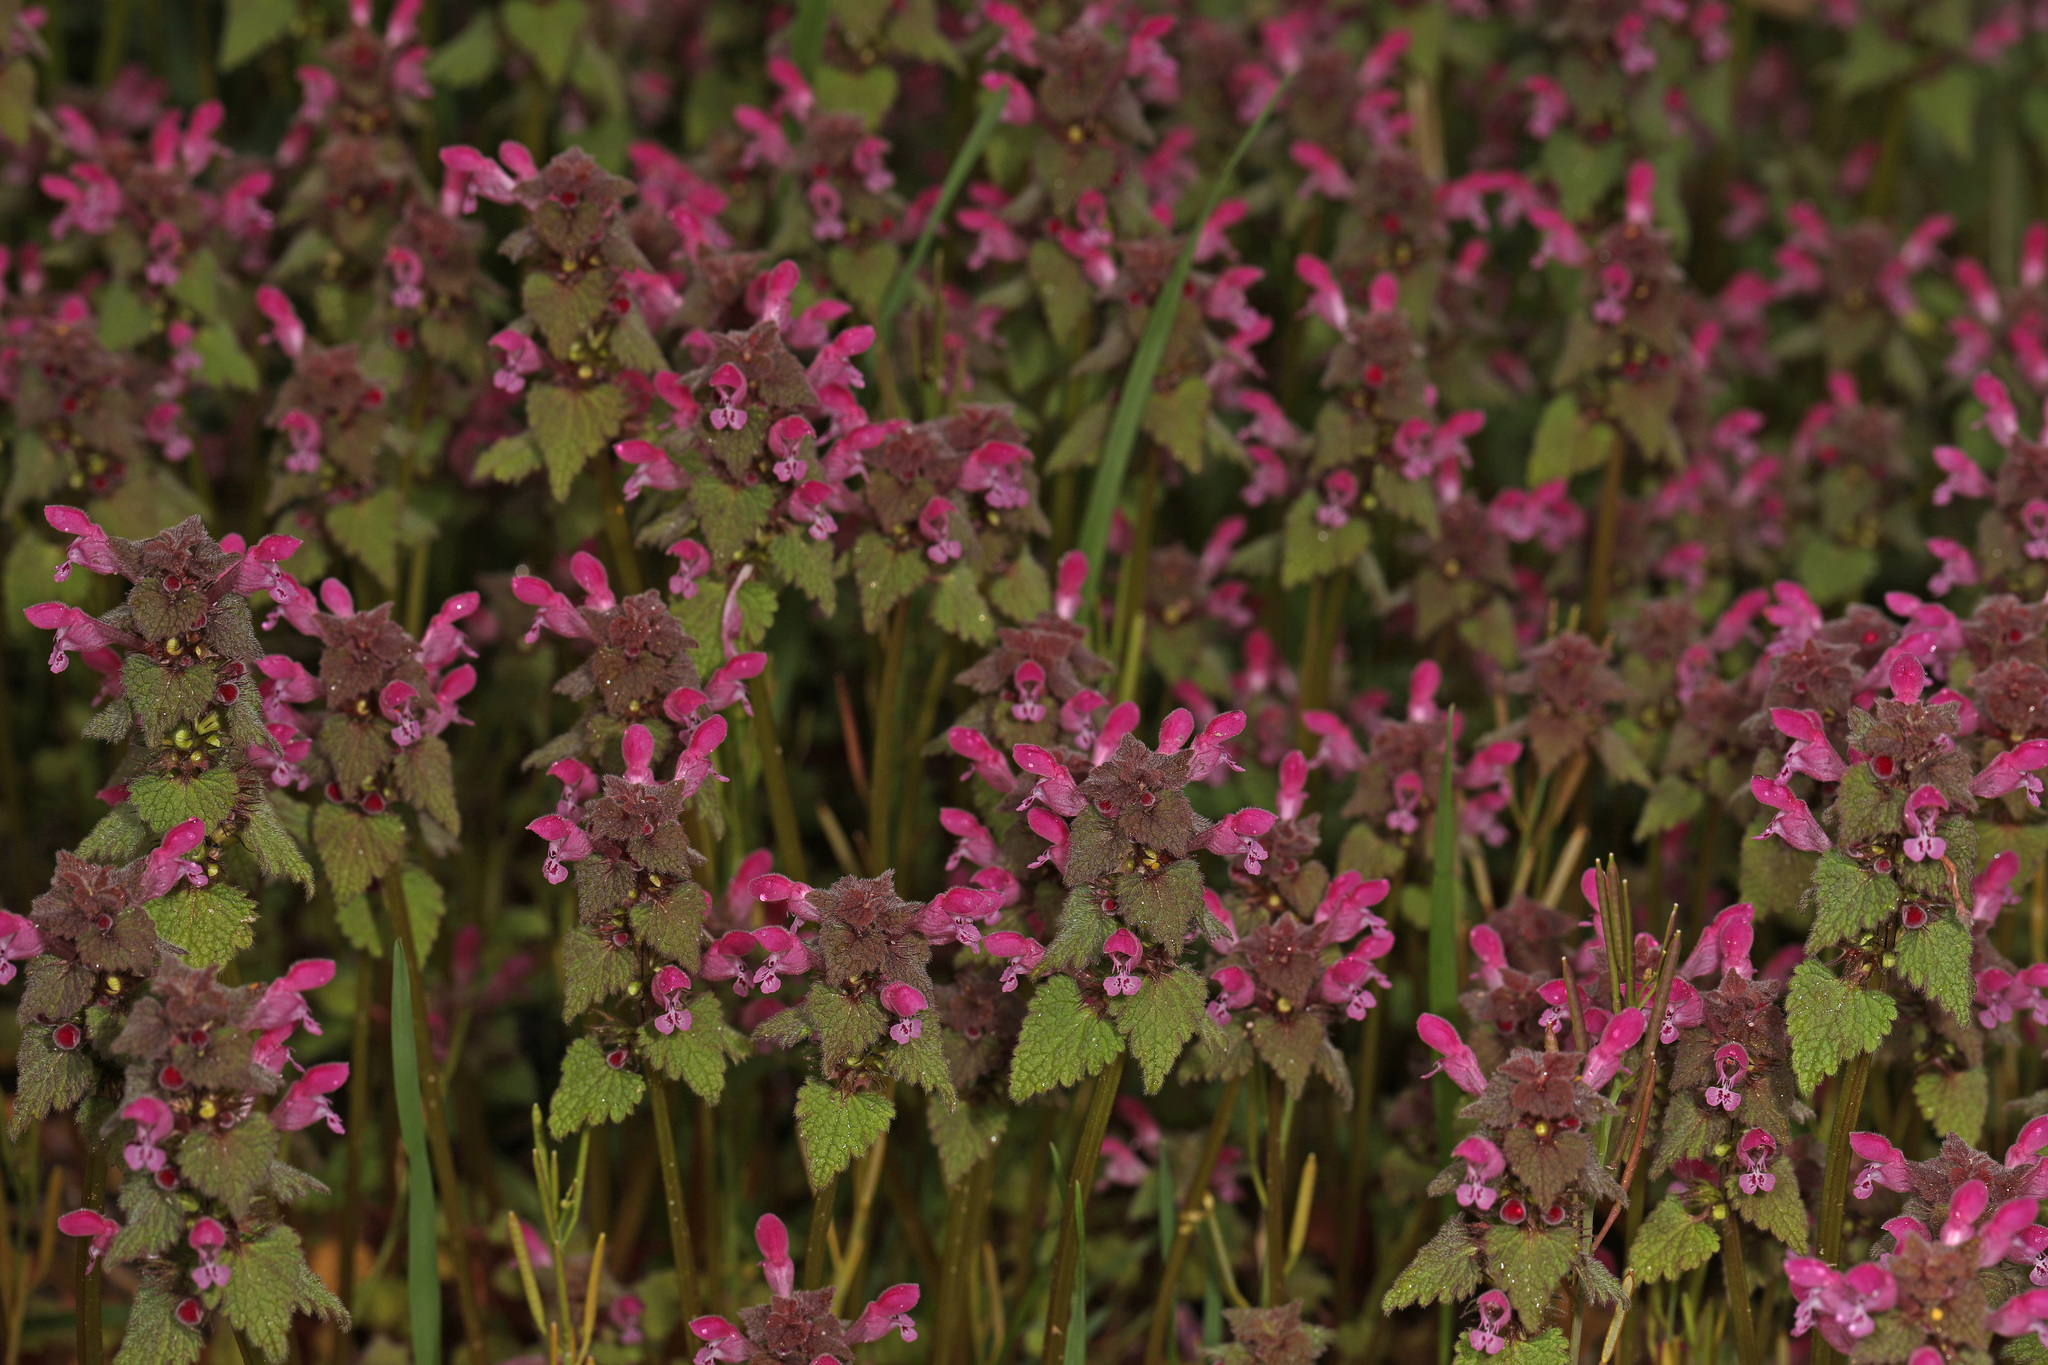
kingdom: Plantae
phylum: Tracheophyta
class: Magnoliopsida
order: Lamiales
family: Lamiaceae
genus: Lamium
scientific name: Lamium purpureum
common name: Red dead-nettle
